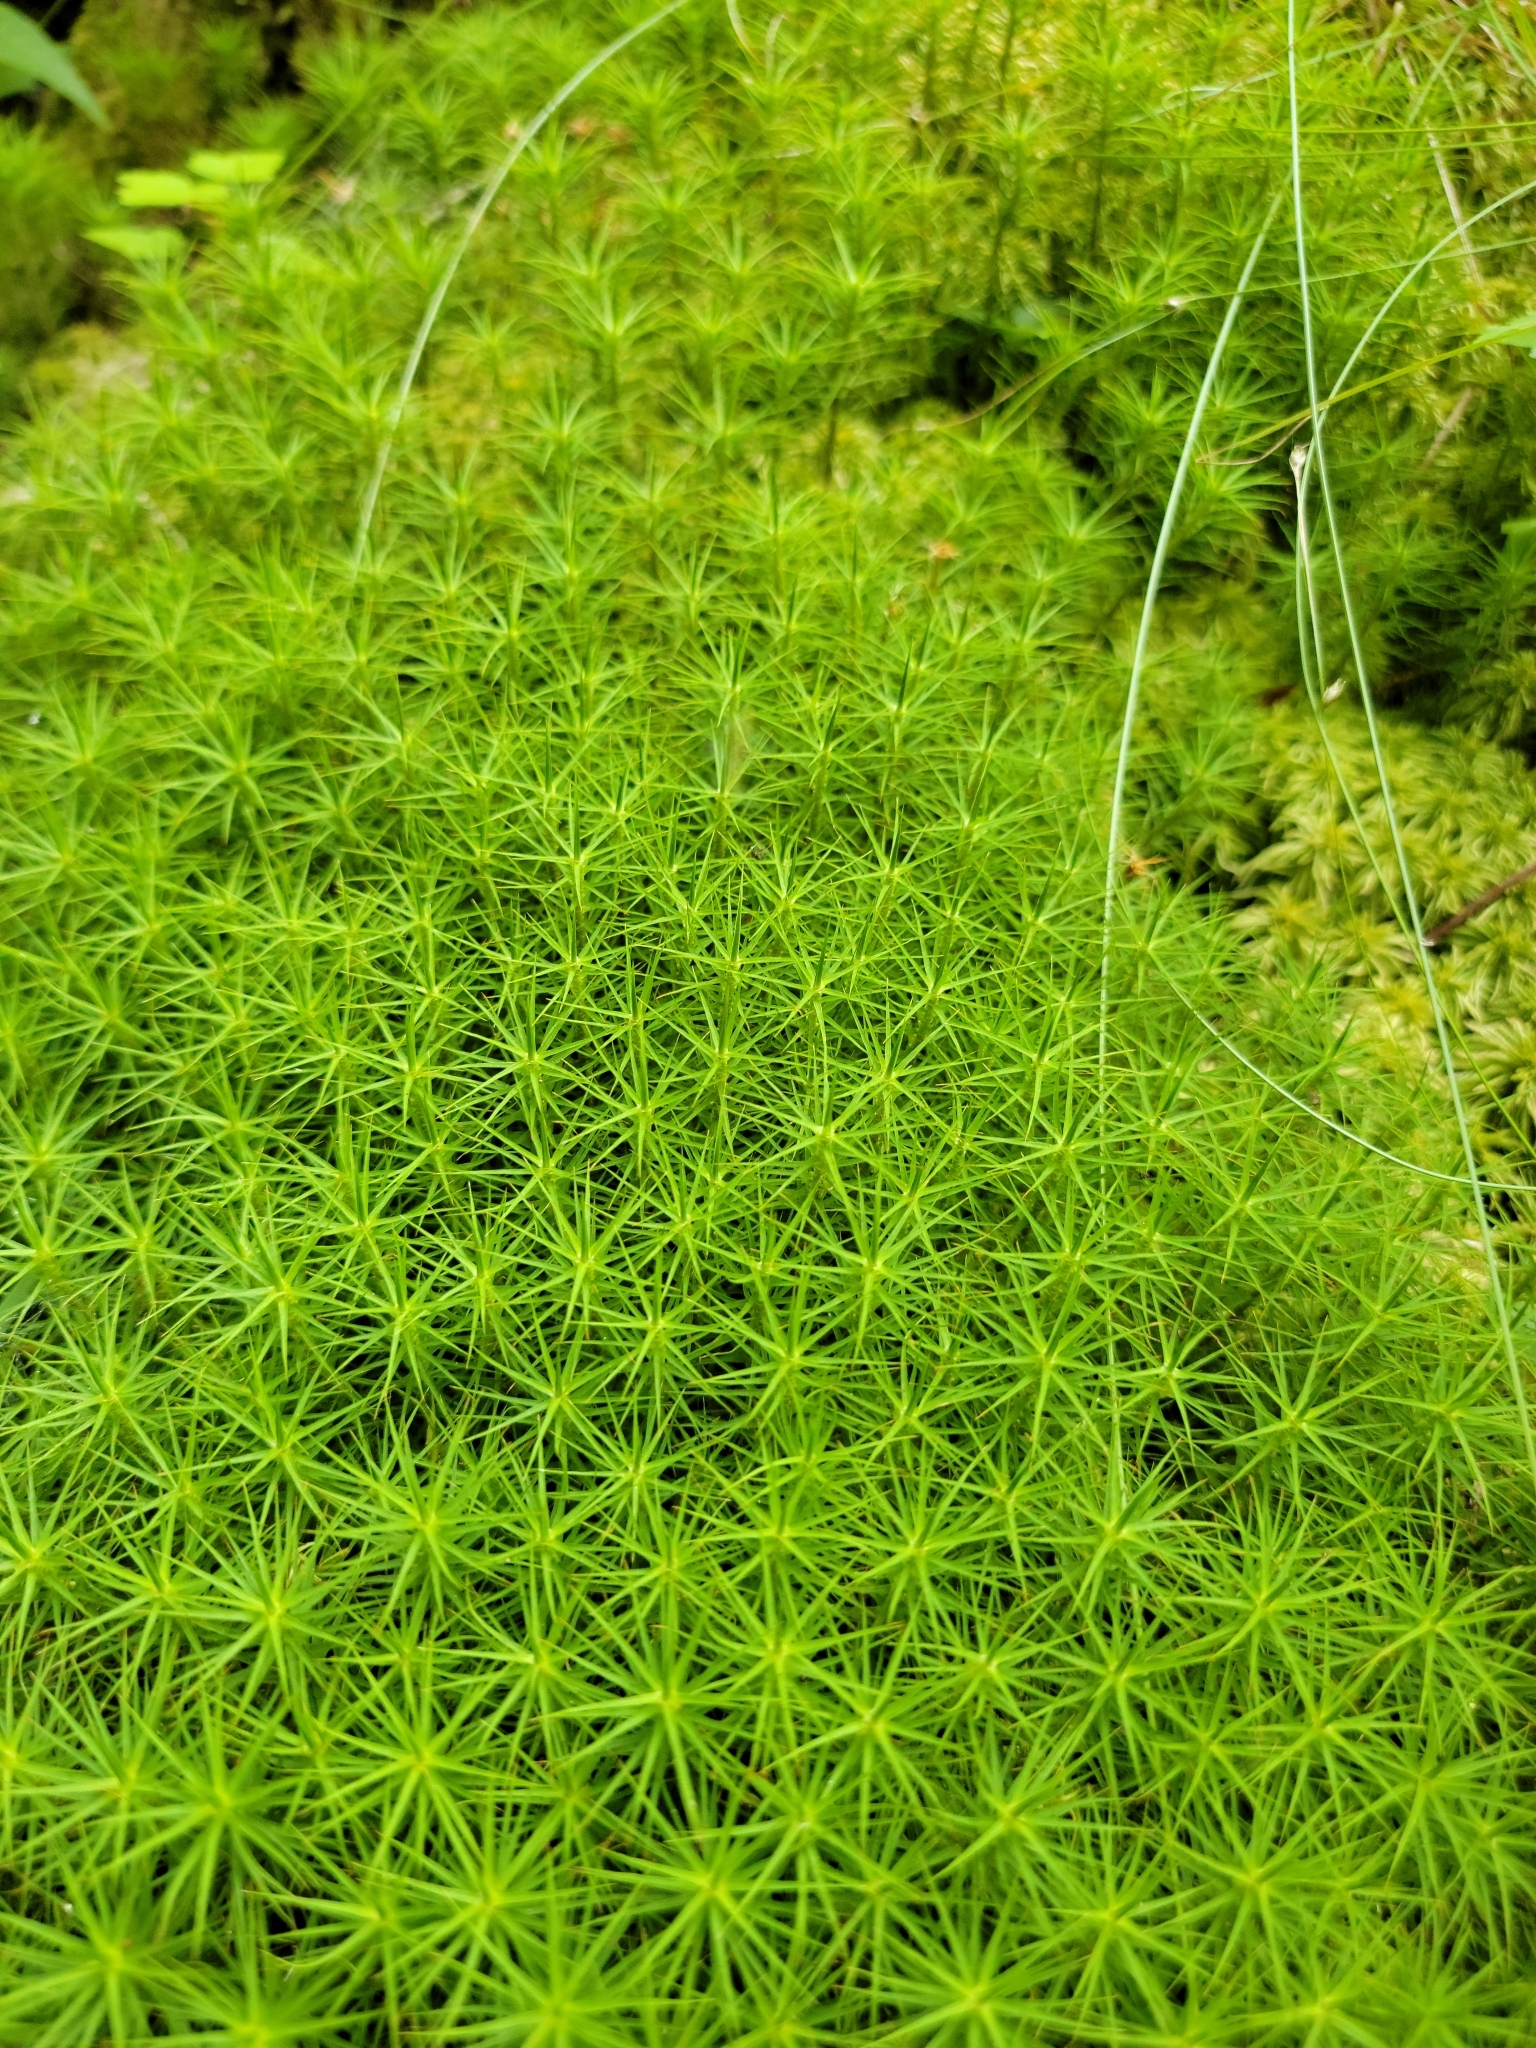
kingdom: Plantae
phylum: Bryophyta
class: Polytrichopsida
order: Polytrichales
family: Polytrichaceae
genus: Polytrichum
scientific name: Polytrichum commune
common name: Common haircap
